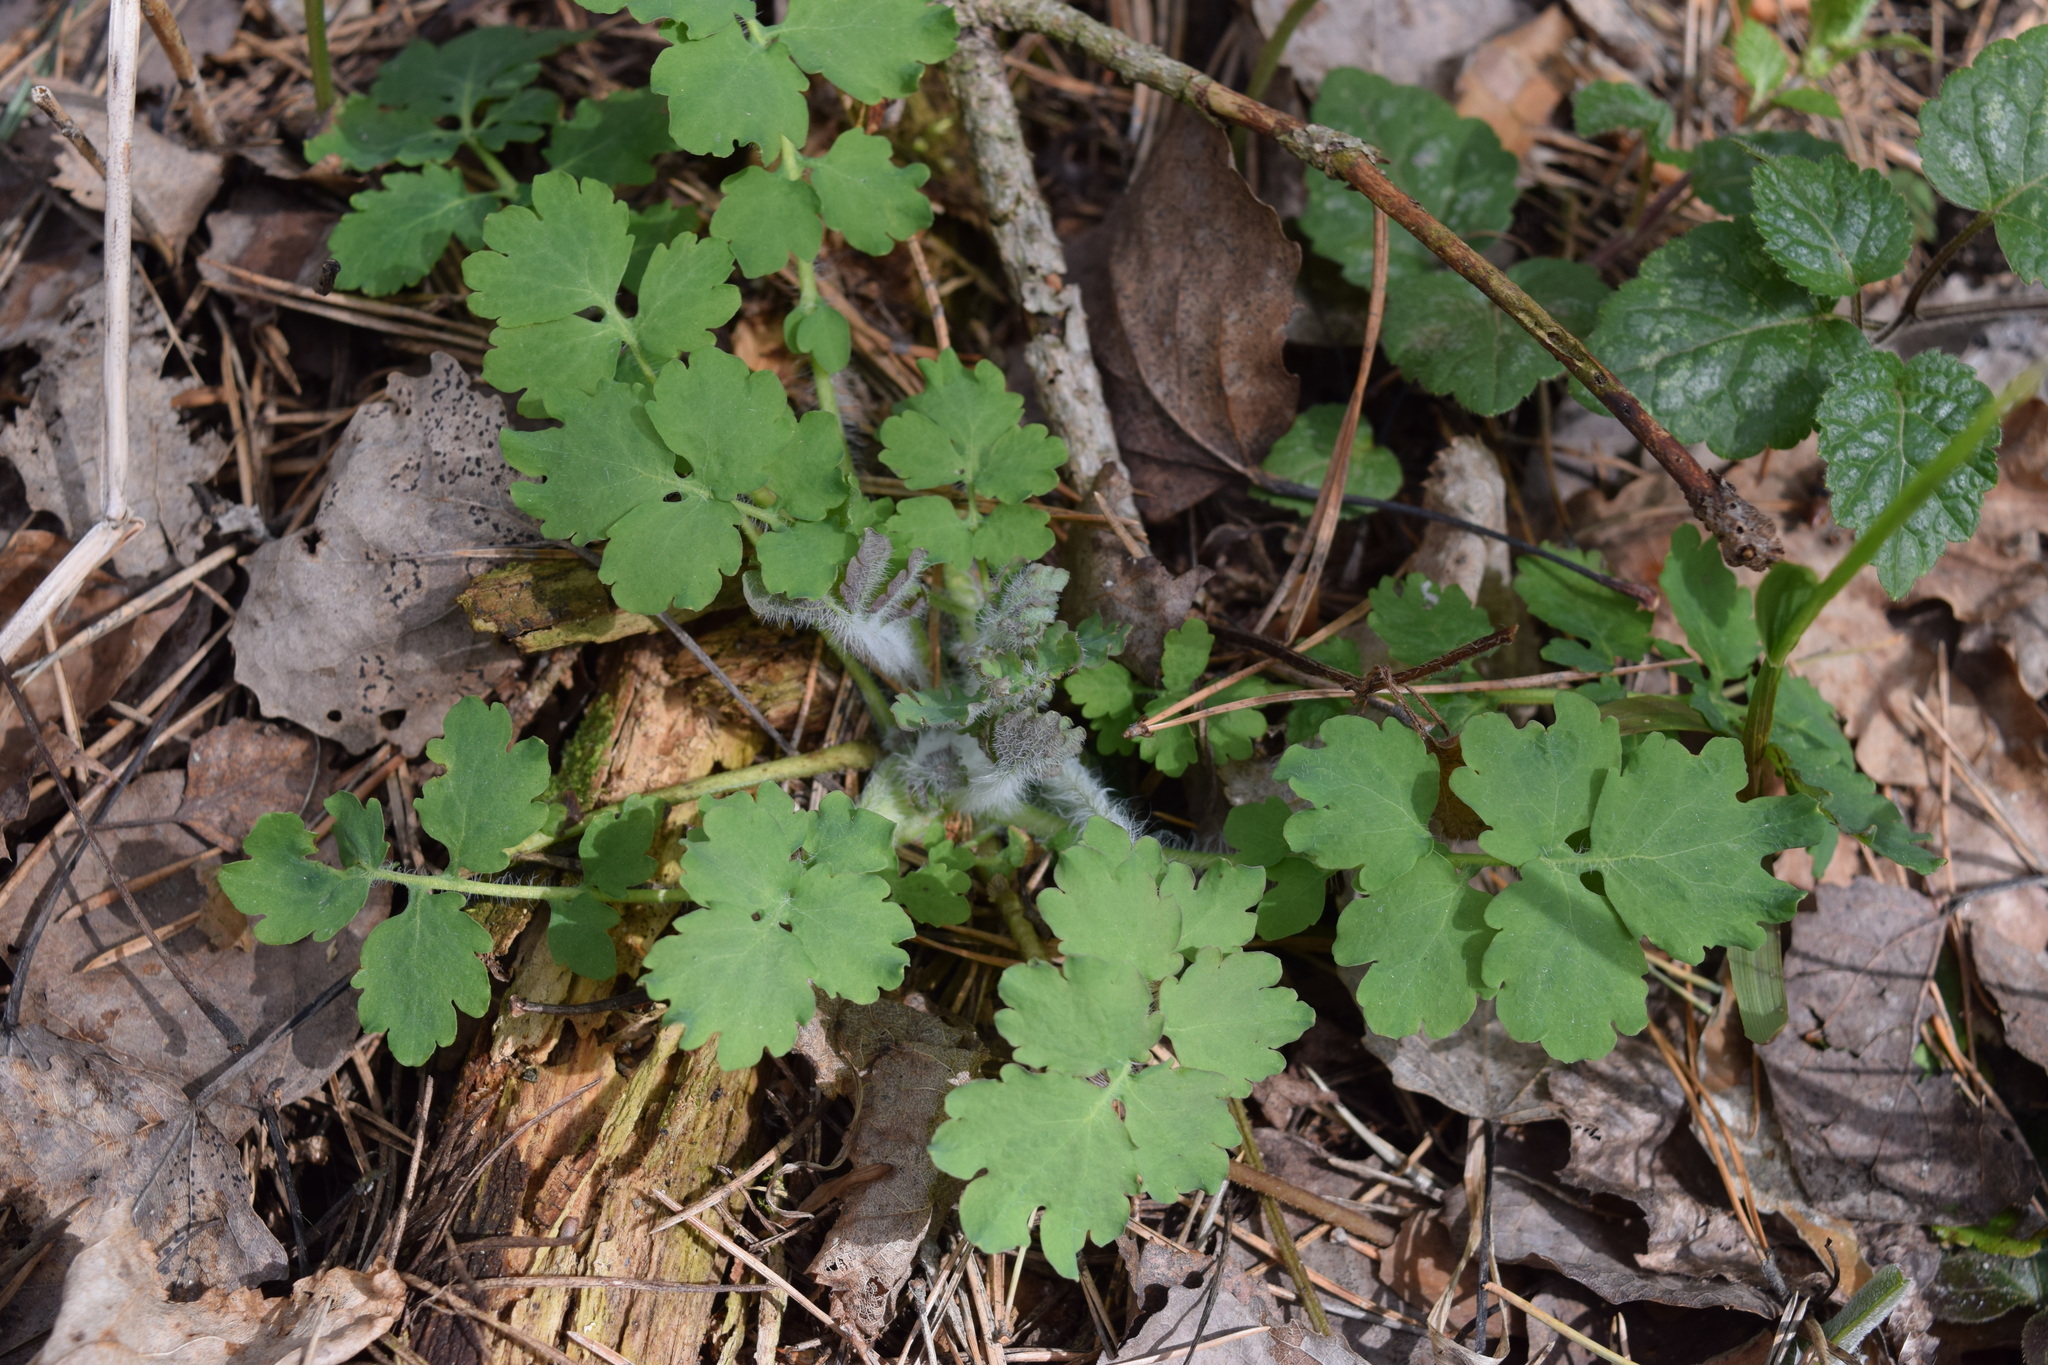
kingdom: Plantae
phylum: Tracheophyta
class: Magnoliopsida
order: Ranunculales
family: Papaveraceae
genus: Chelidonium
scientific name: Chelidonium majus
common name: Greater celandine
